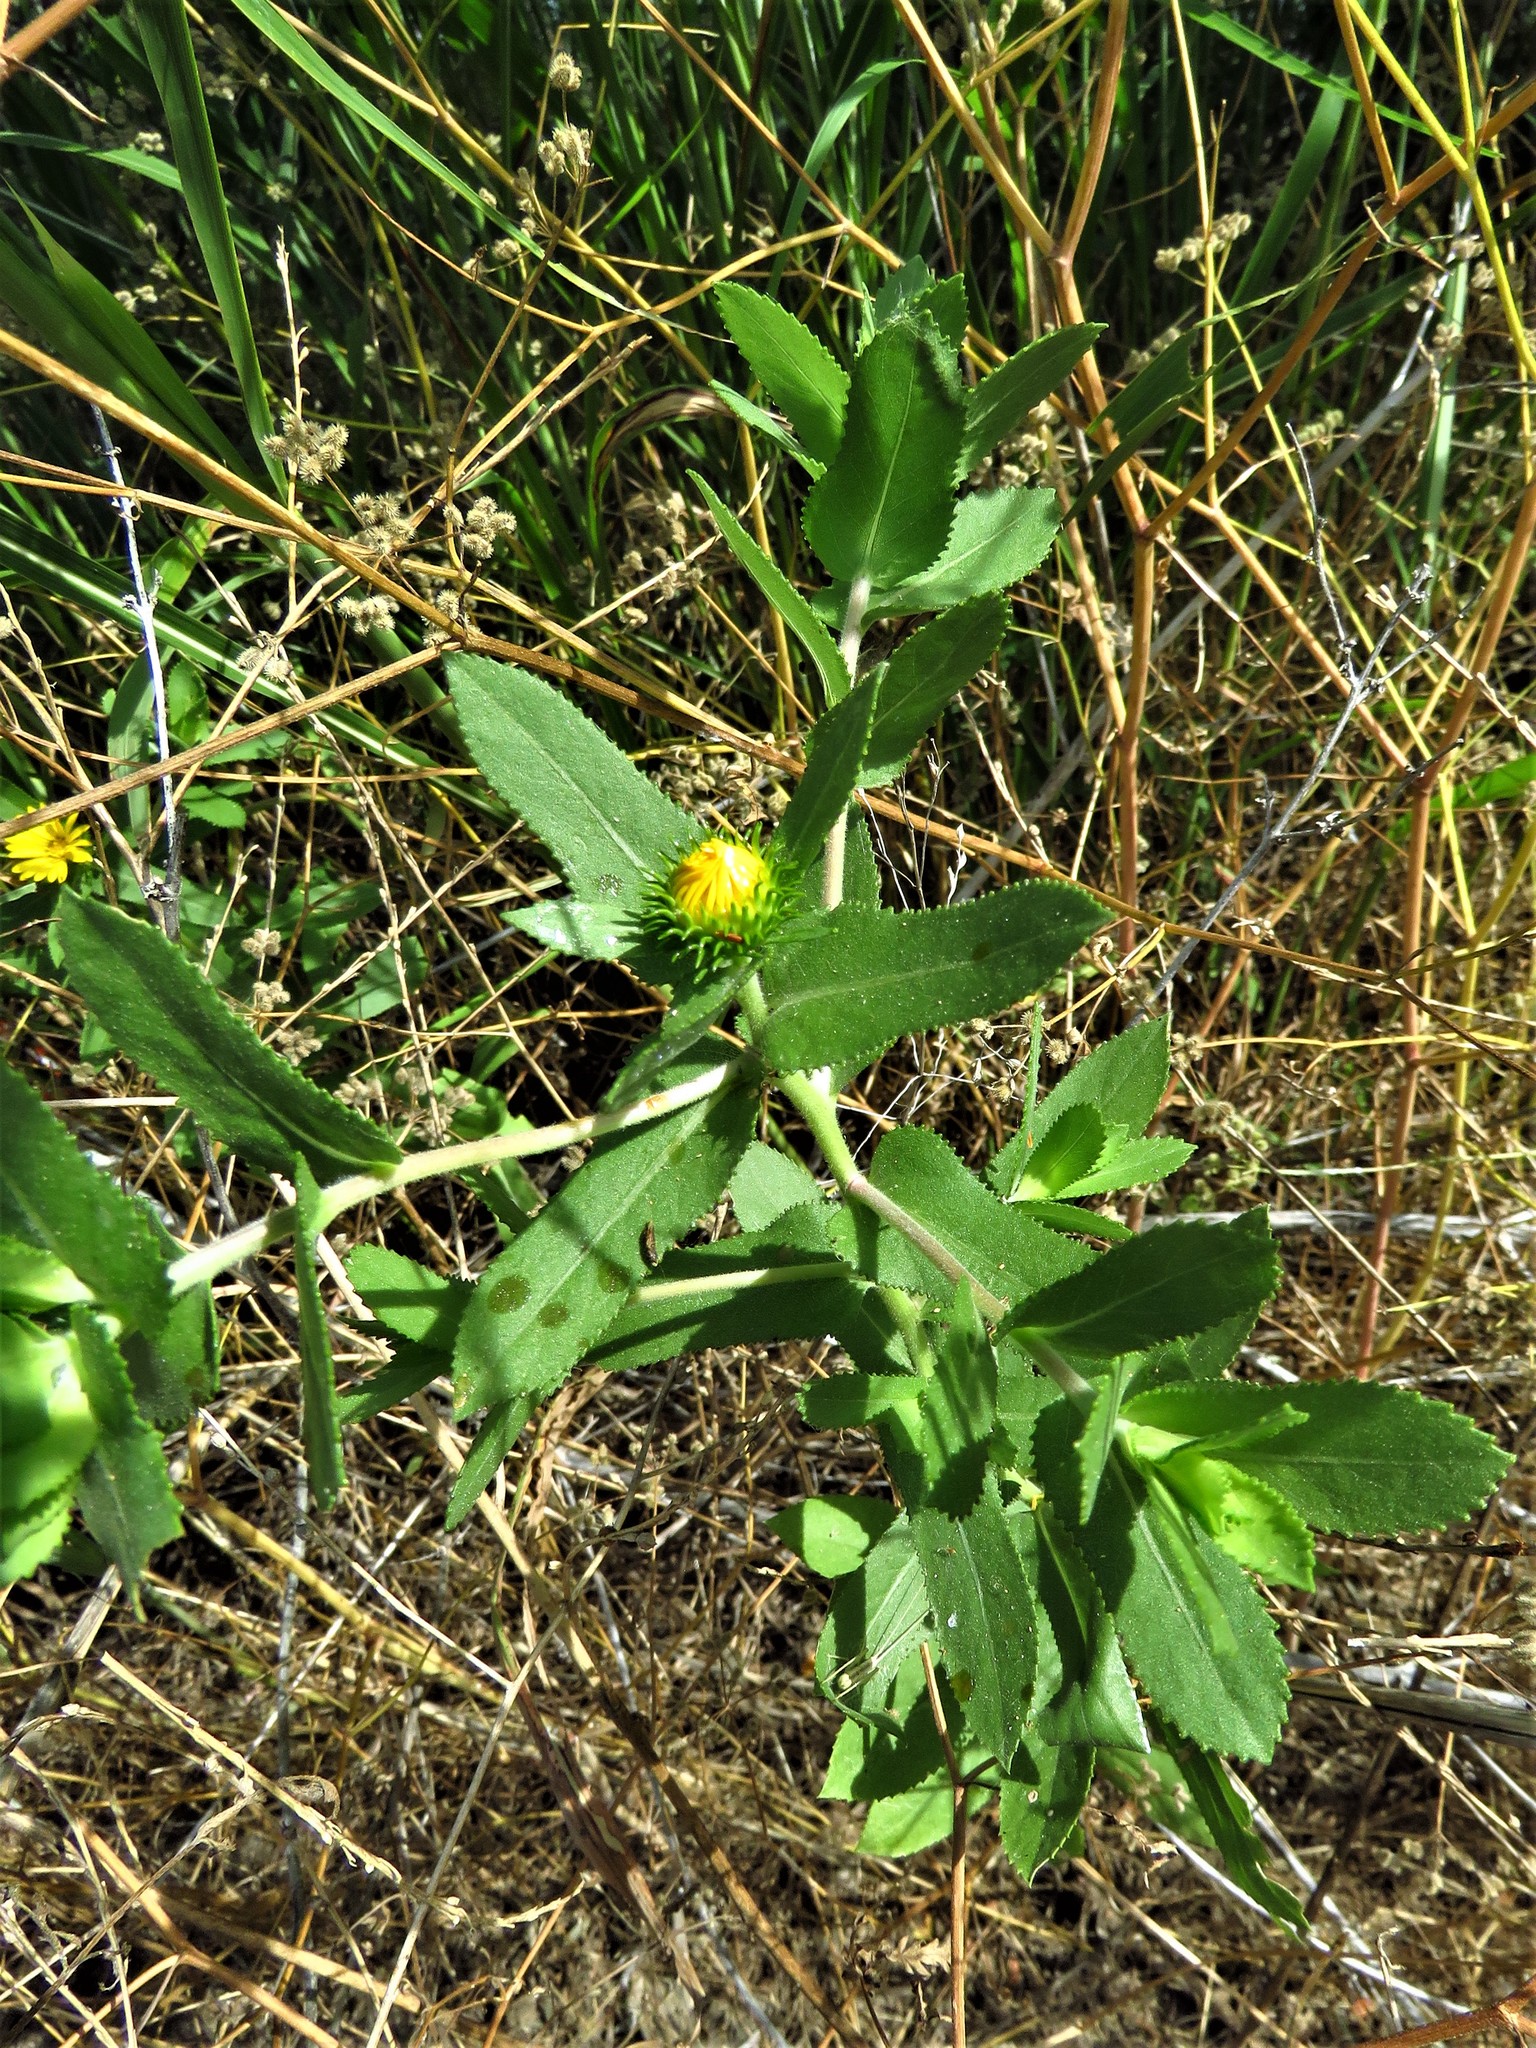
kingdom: Plantae
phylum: Tracheophyta
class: Magnoliopsida
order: Asterales
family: Asteraceae
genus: Grindelia
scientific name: Grindelia adenodonta
